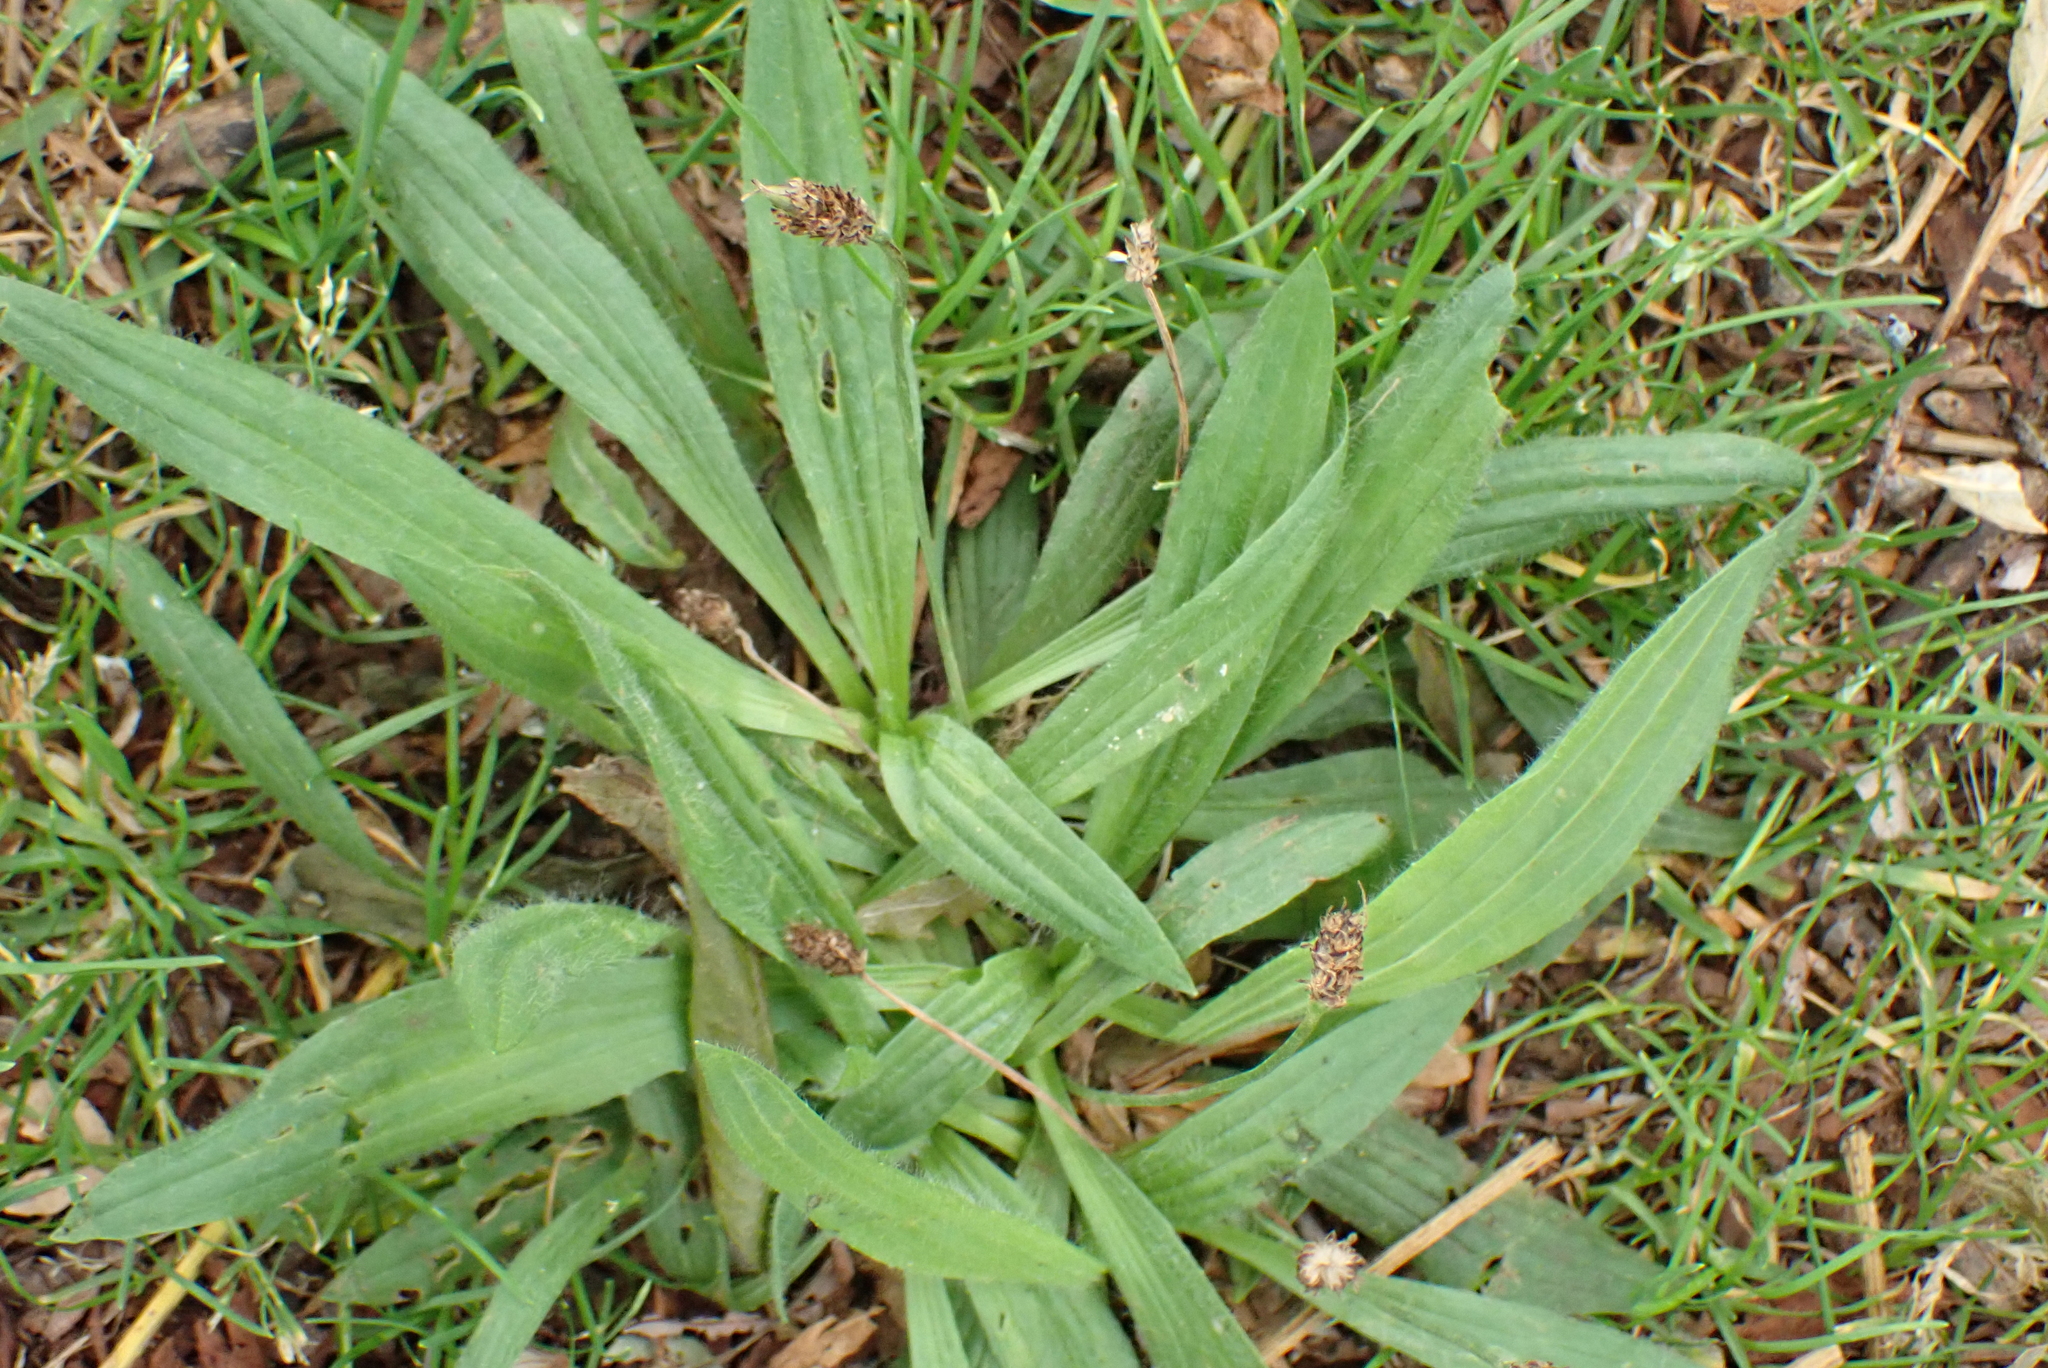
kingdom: Plantae
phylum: Tracheophyta
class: Magnoliopsida
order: Lamiales
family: Plantaginaceae
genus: Plantago
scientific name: Plantago lanceolata
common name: Ribwort plantain
